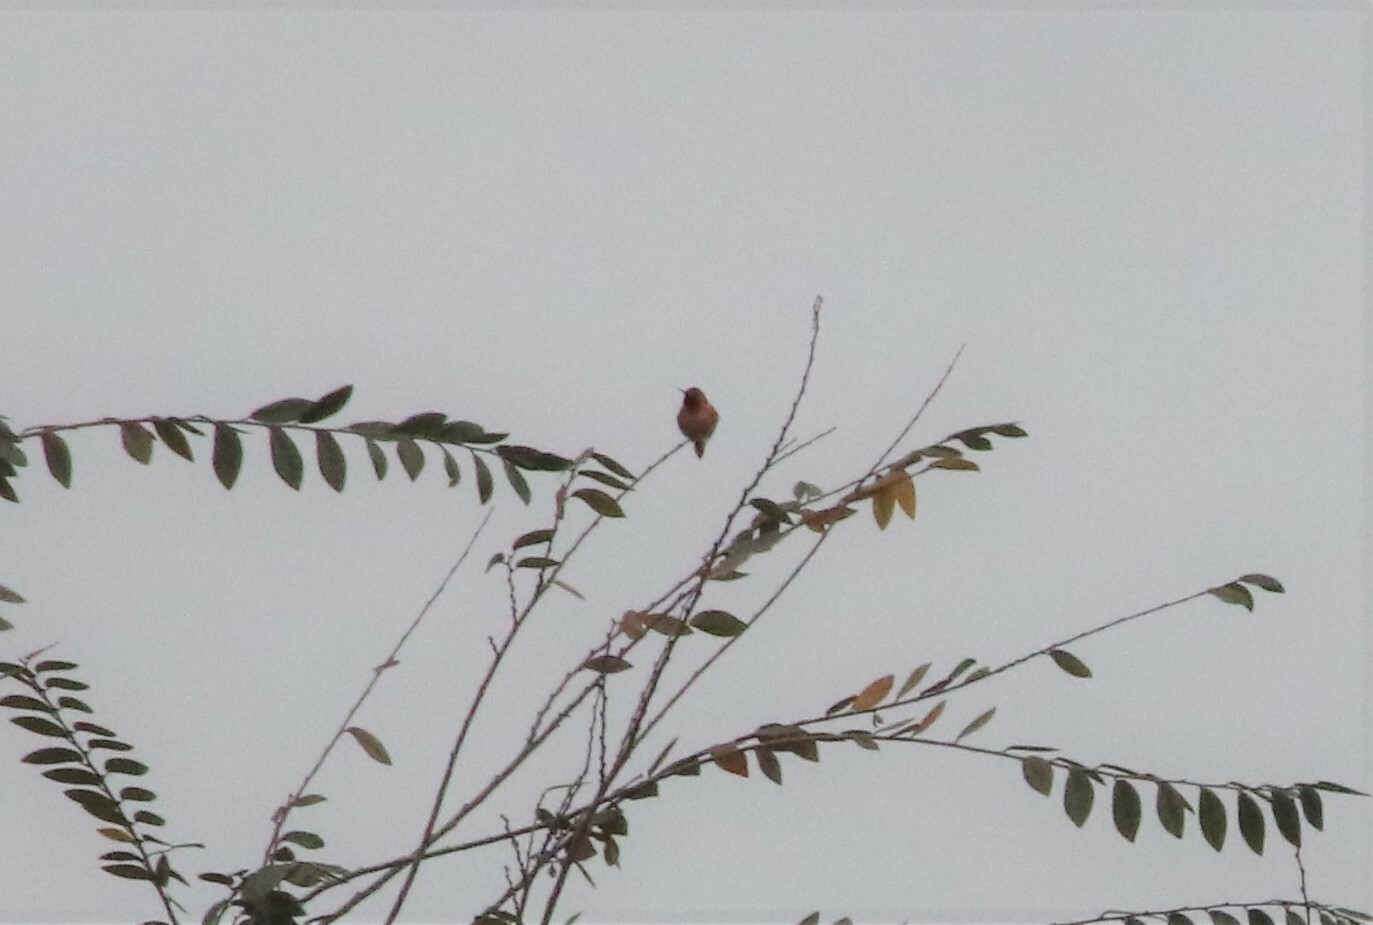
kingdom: Animalia
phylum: Chordata
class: Aves
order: Apodiformes
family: Trochilidae
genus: Selasphorus
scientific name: Selasphorus sasin
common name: Allen's hummingbird
